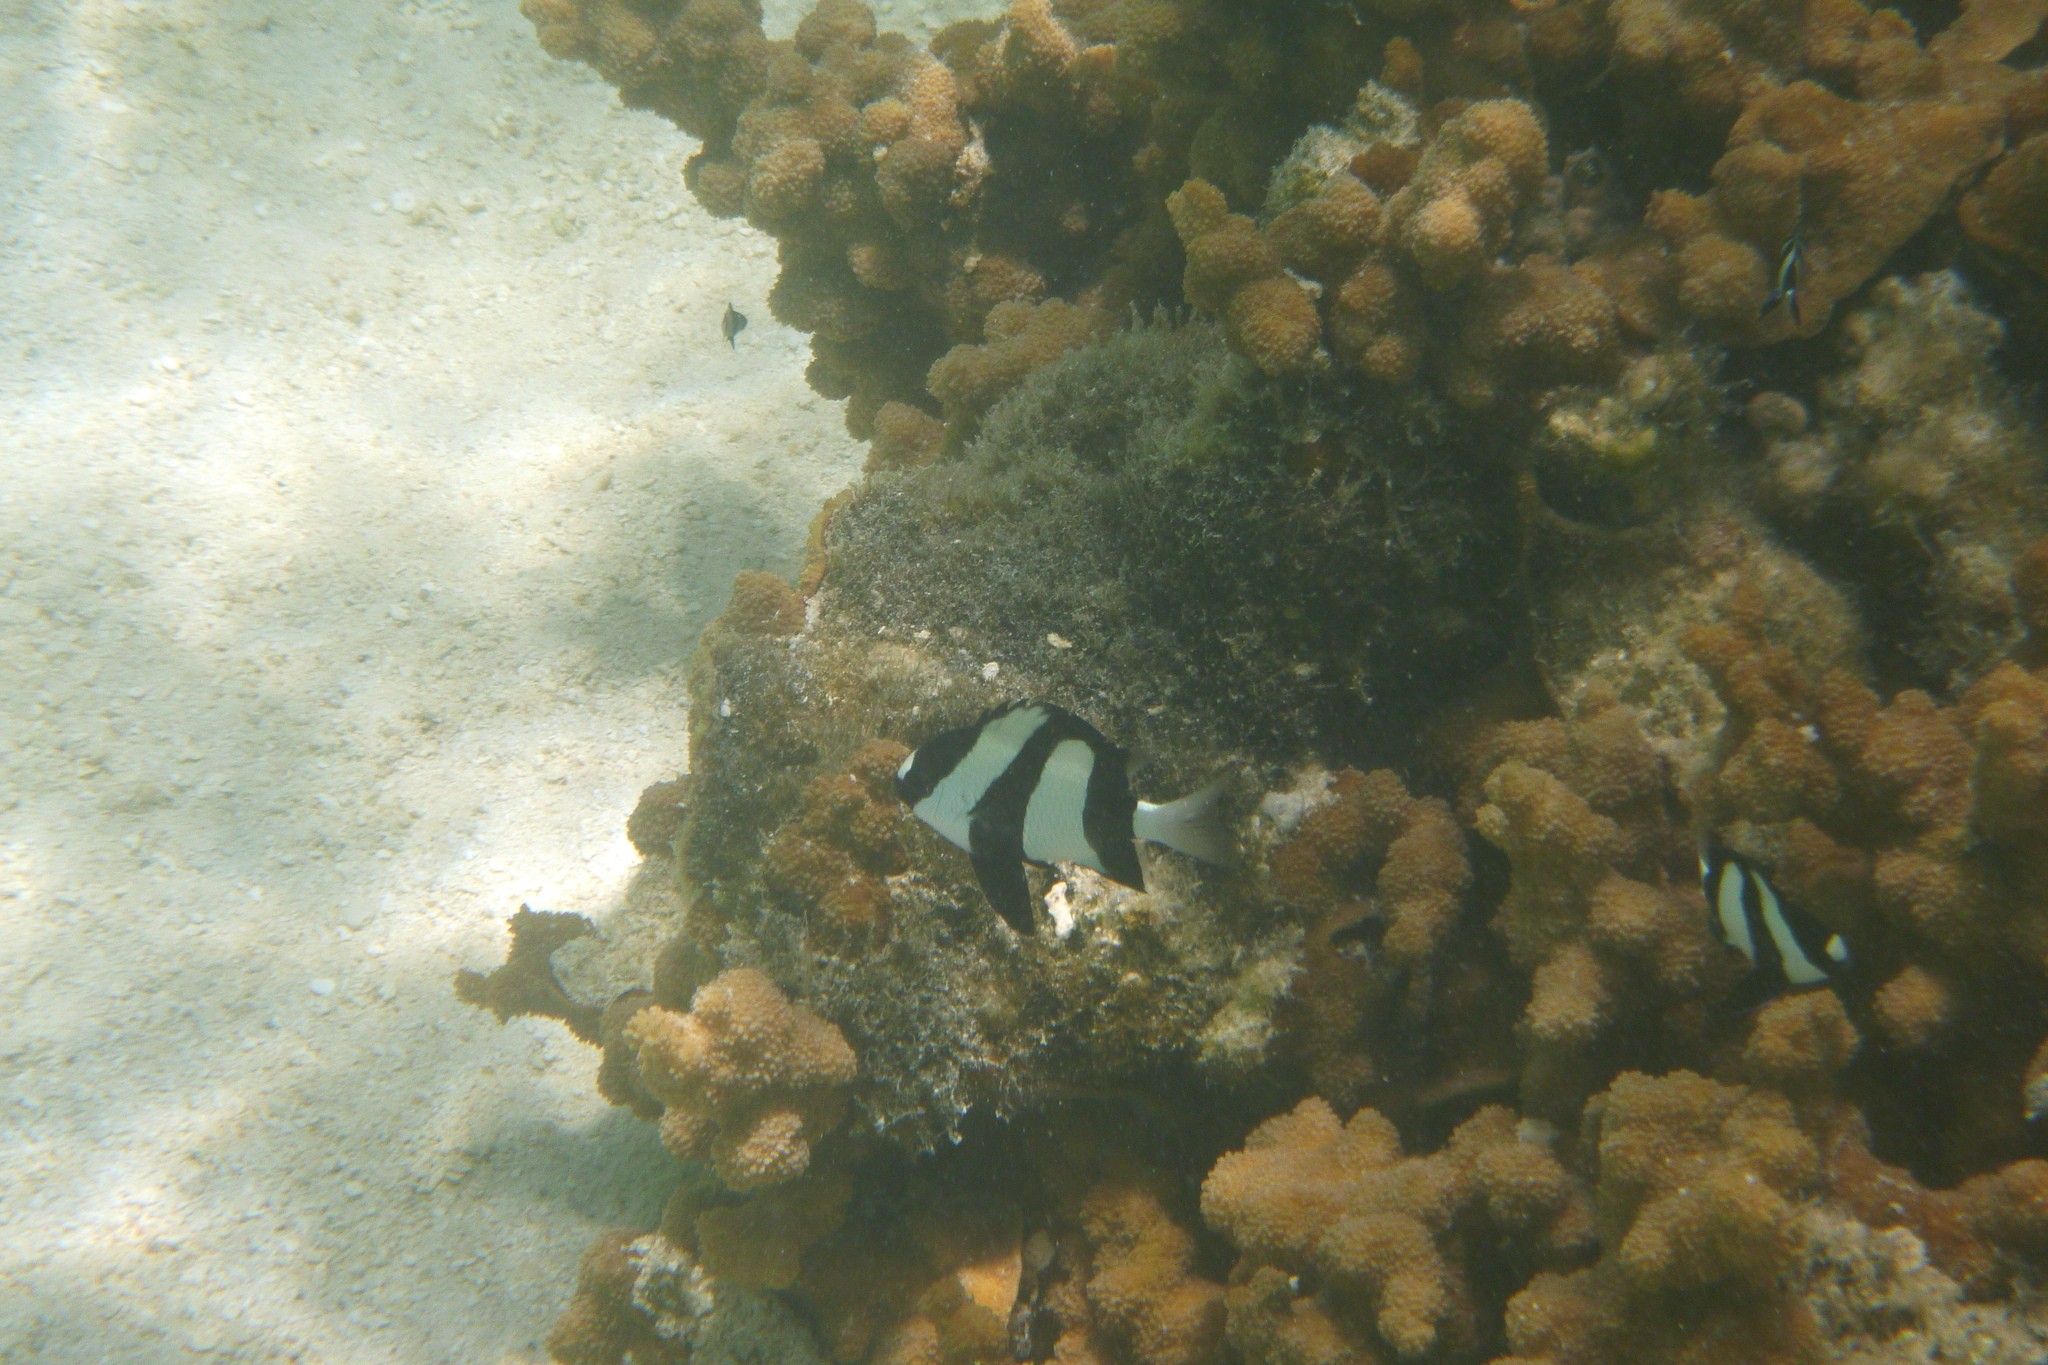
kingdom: Animalia
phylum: Chordata
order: Perciformes
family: Pomacentridae
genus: Dascyllus
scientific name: Dascyllus aruanus
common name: Humbug dascyllus
